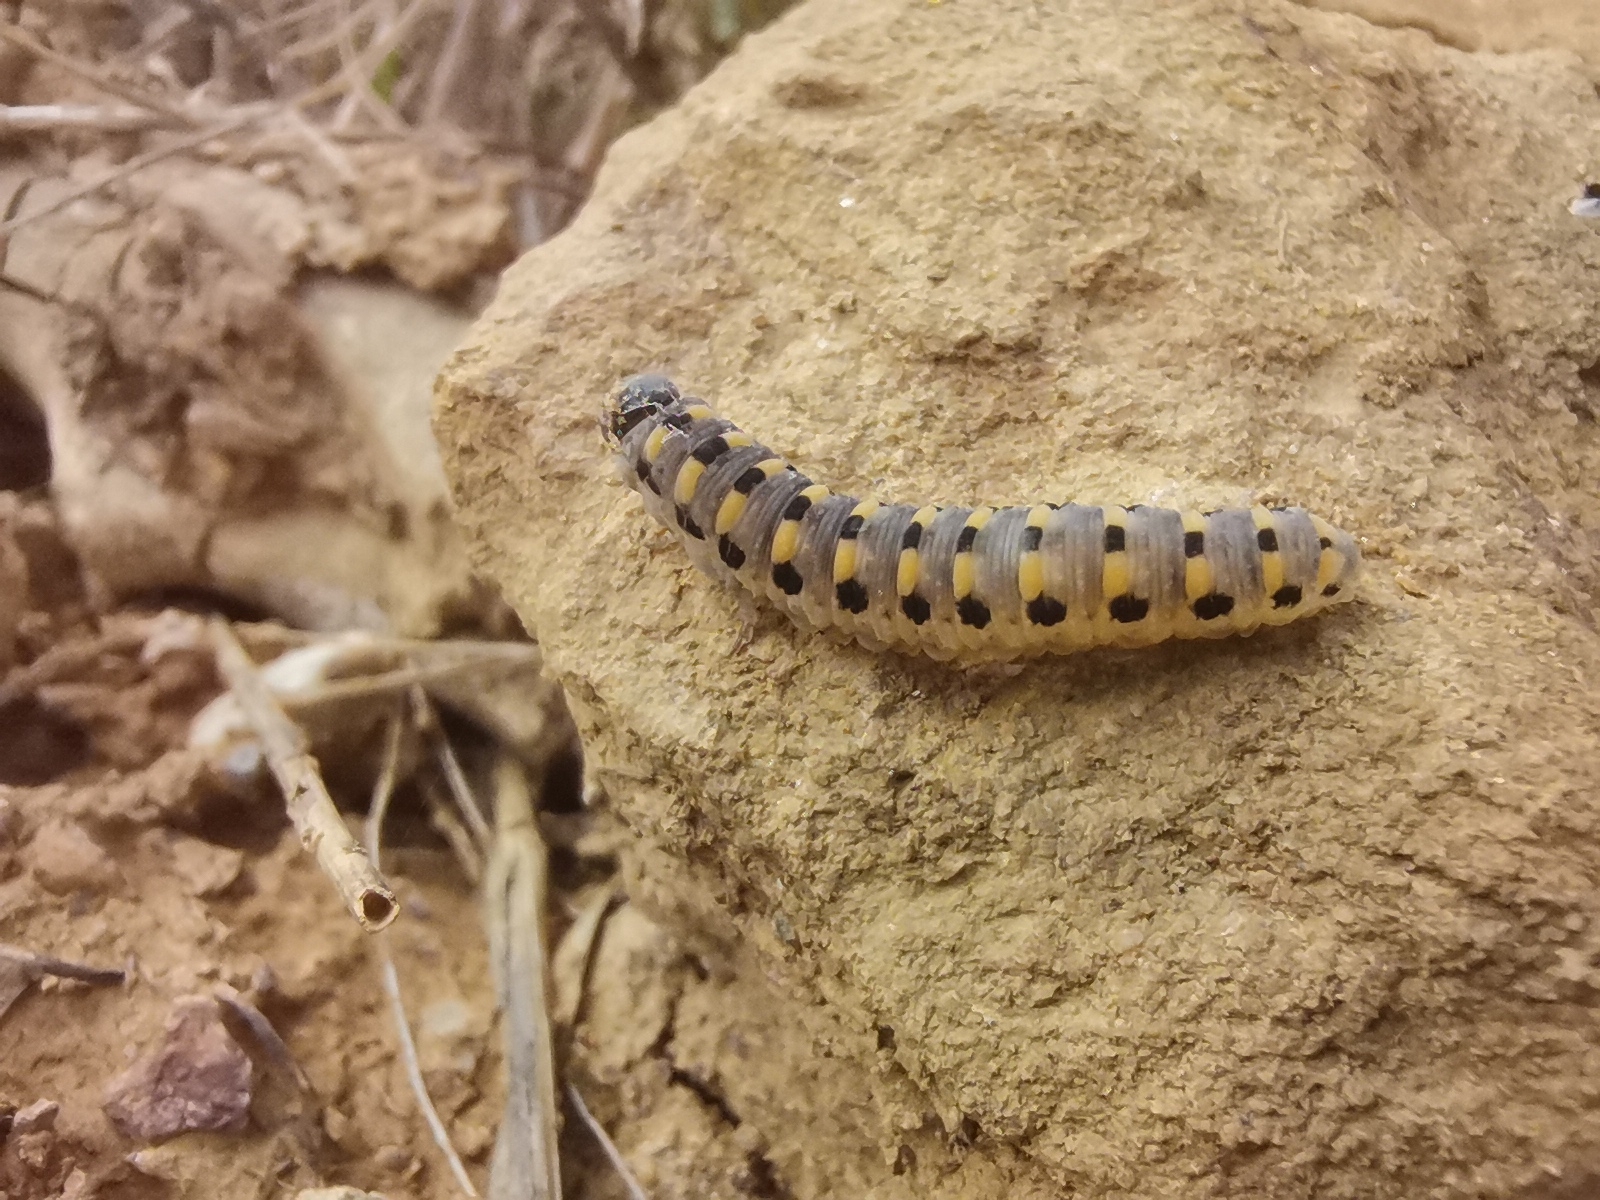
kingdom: Animalia
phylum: Arthropoda
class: Insecta
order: Hymenoptera
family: Cimbicidae
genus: Abia
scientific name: Abia nitens
